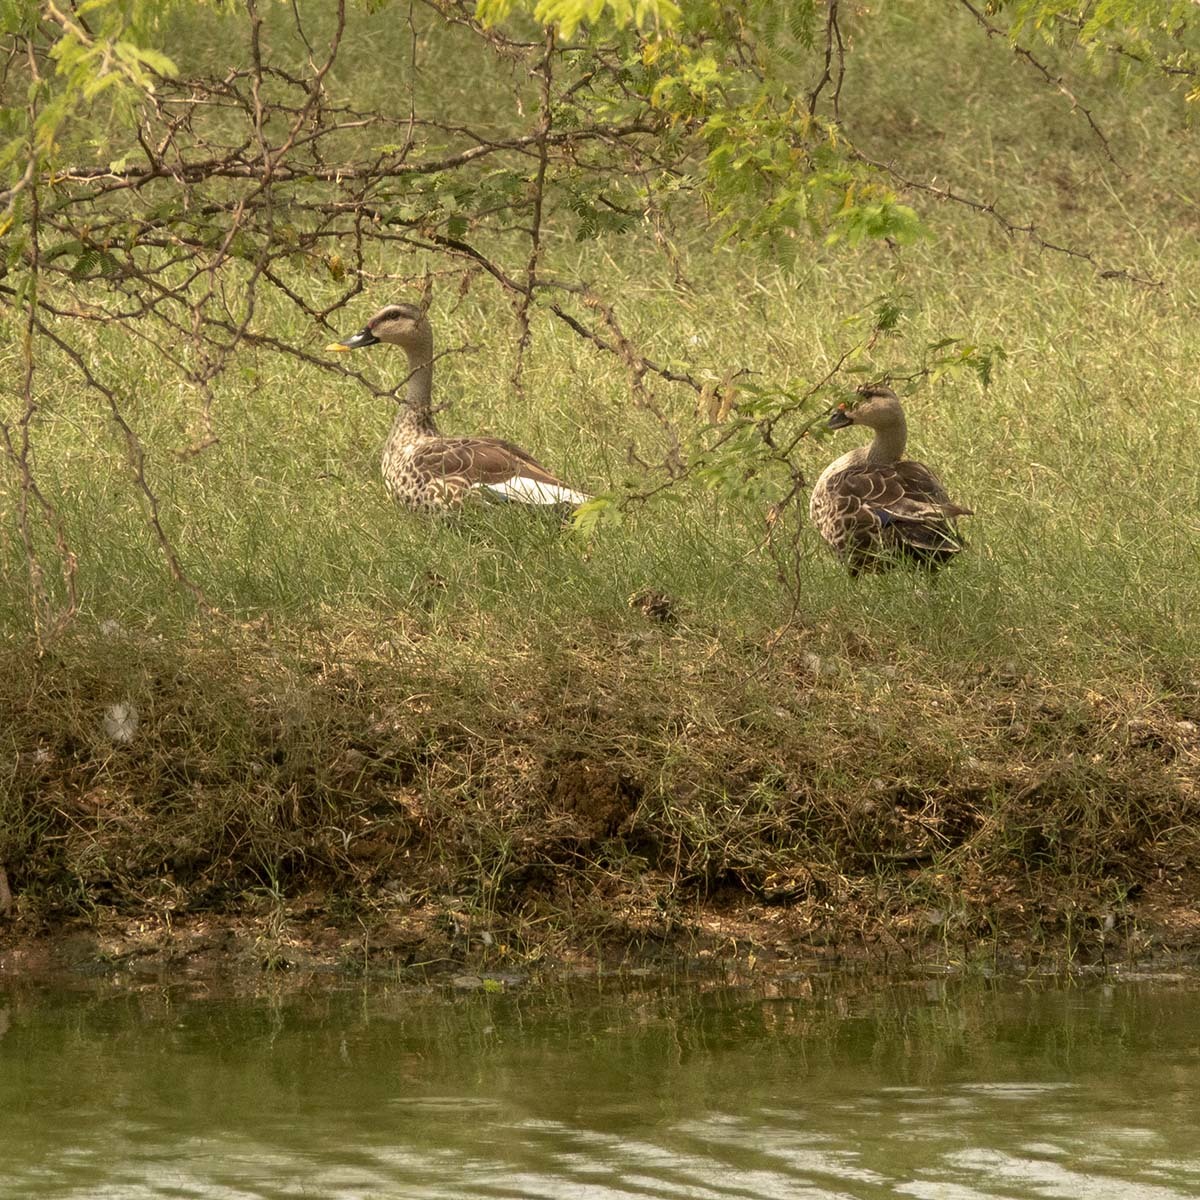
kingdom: Animalia
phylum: Chordata
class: Aves
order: Anseriformes
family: Anatidae
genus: Anas
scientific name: Anas poecilorhyncha
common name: Indian spot-billed duck
